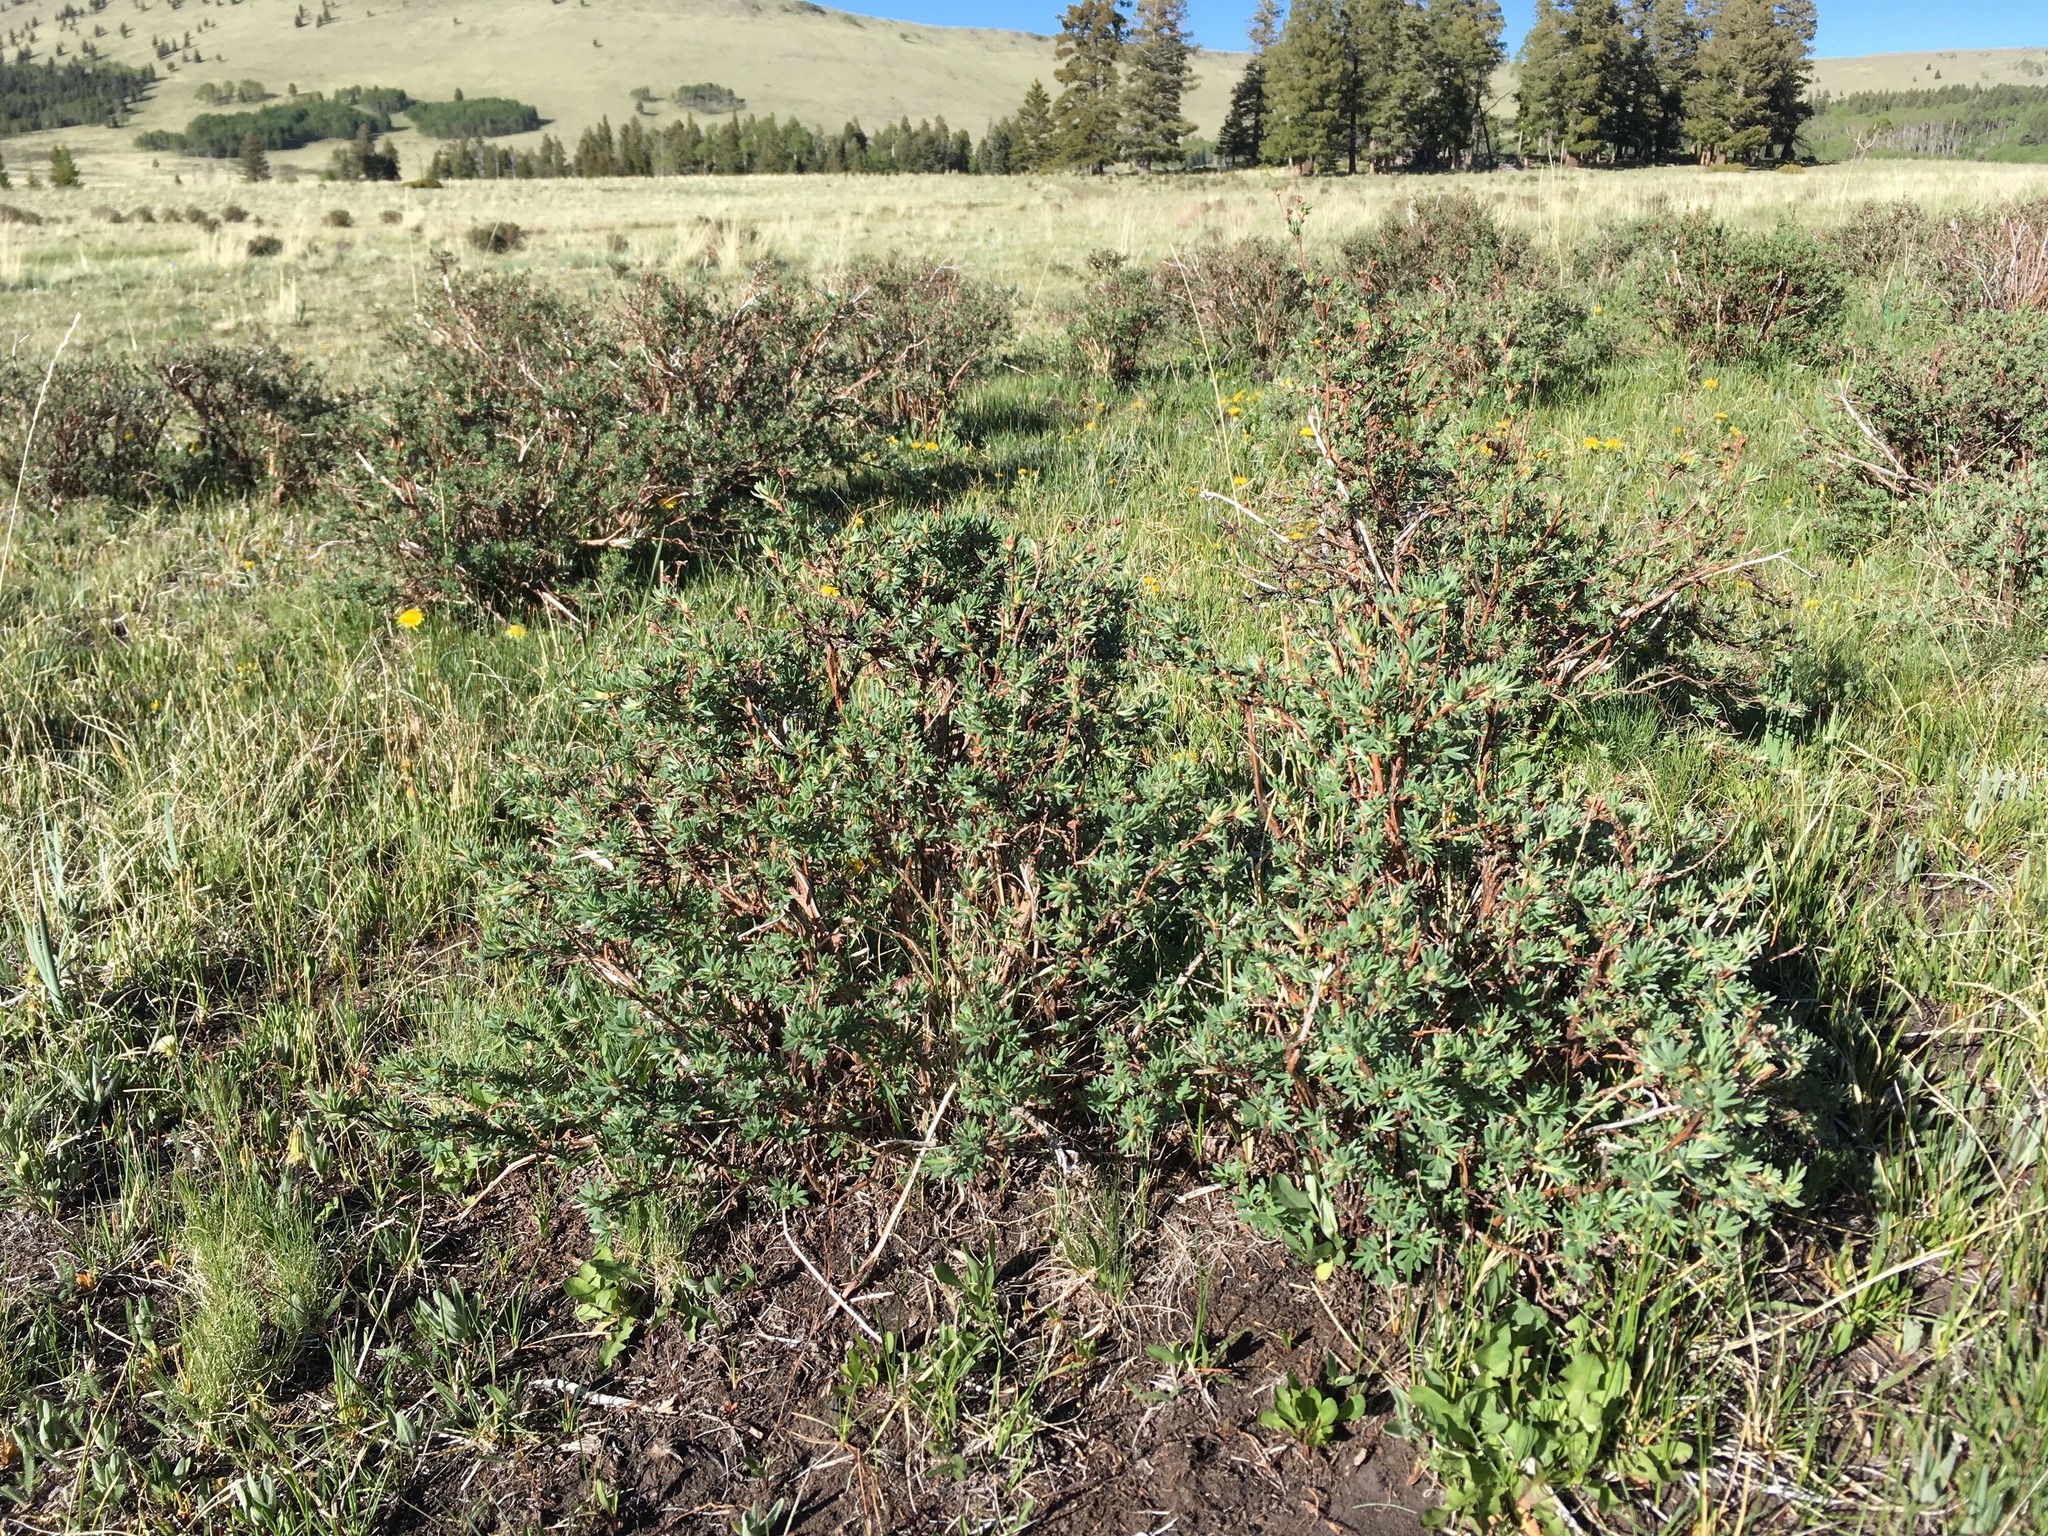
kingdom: Plantae
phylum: Tracheophyta
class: Magnoliopsida
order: Rosales
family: Rosaceae
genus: Dasiphora
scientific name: Dasiphora fruticosa
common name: Shrubby cinquefoil
